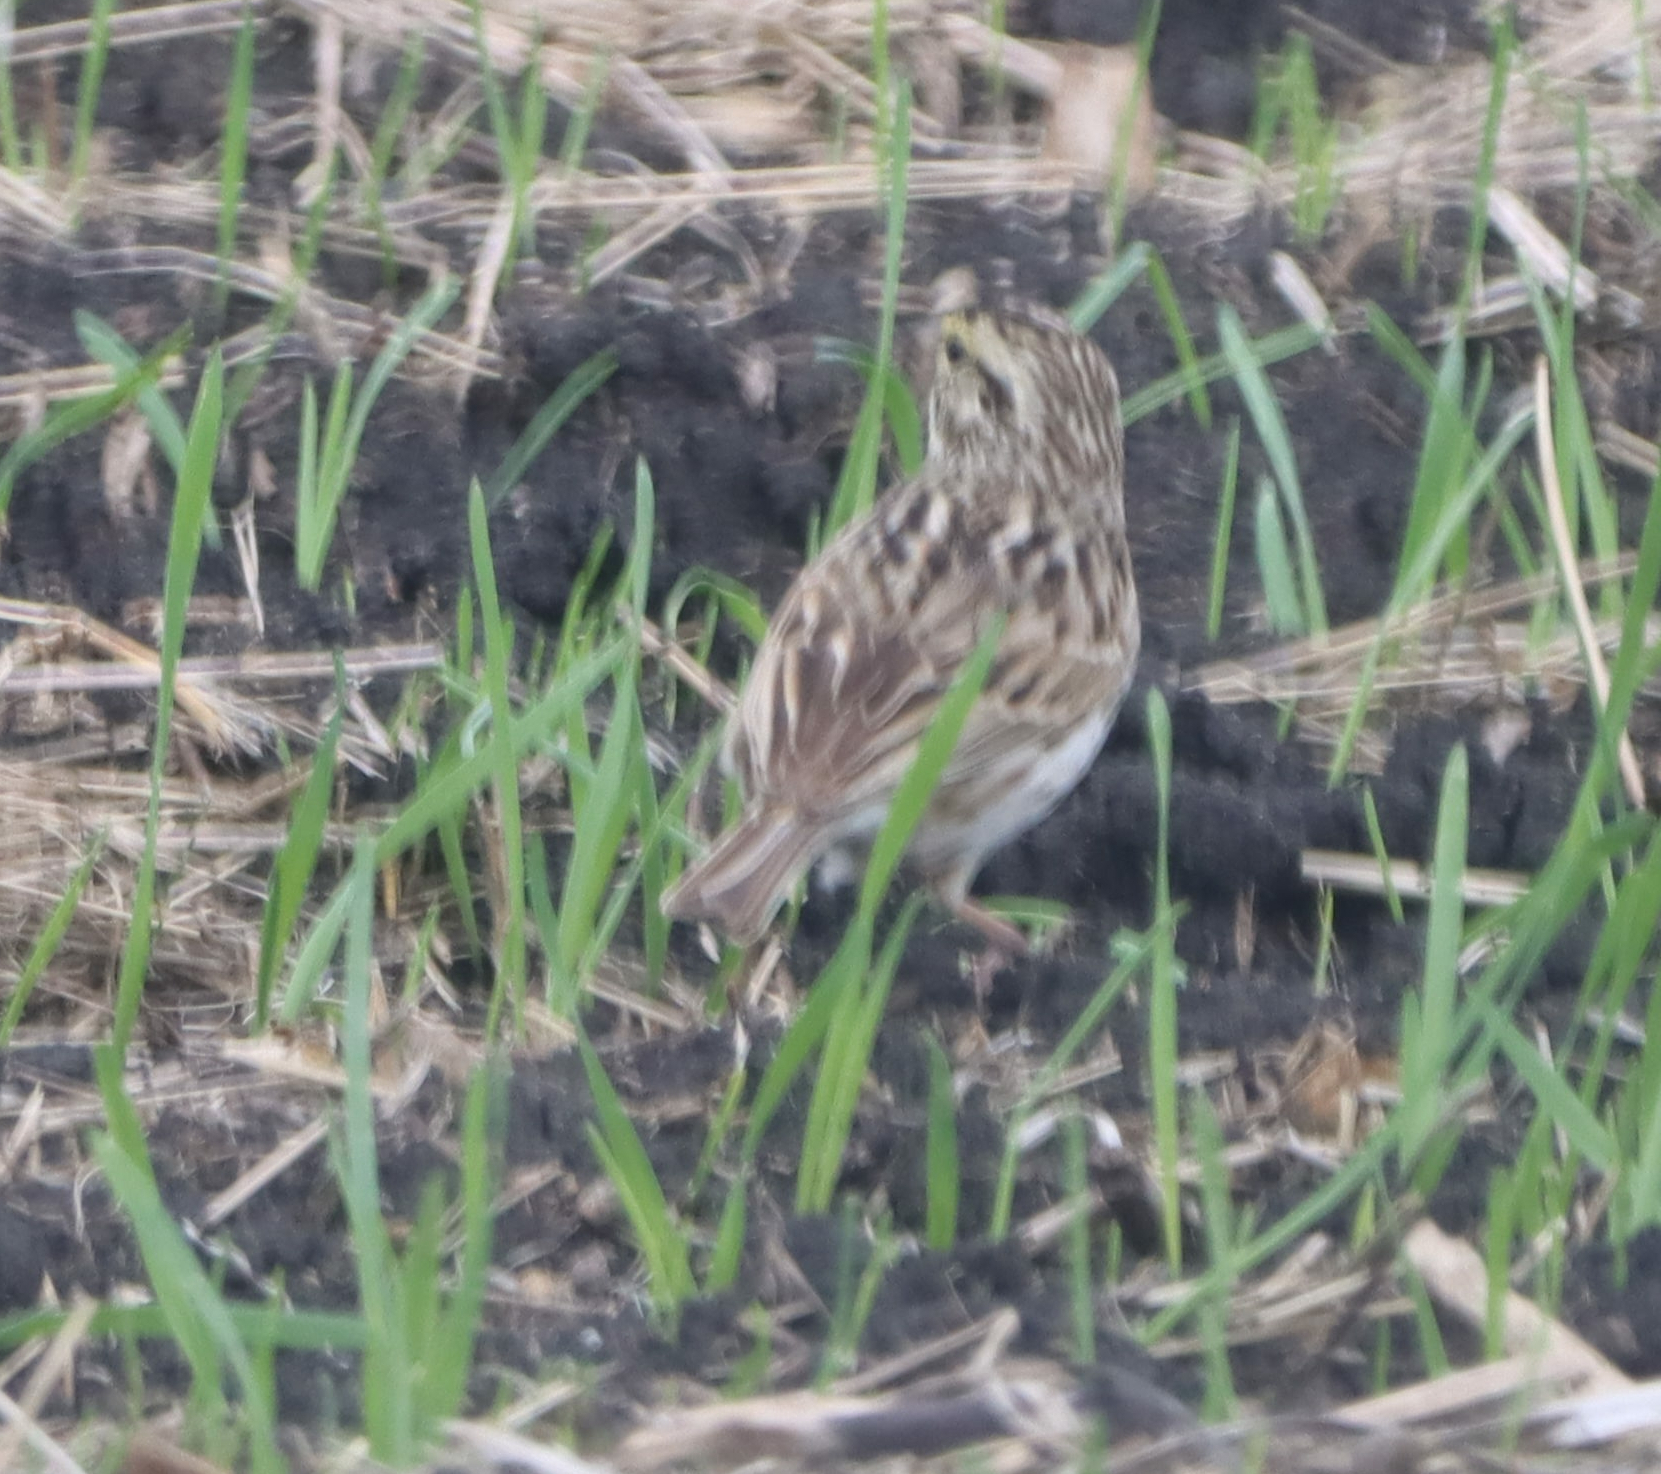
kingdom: Animalia
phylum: Chordata
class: Aves
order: Passeriformes
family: Passerellidae
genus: Passerculus
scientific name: Passerculus sandwichensis
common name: Savannah sparrow
